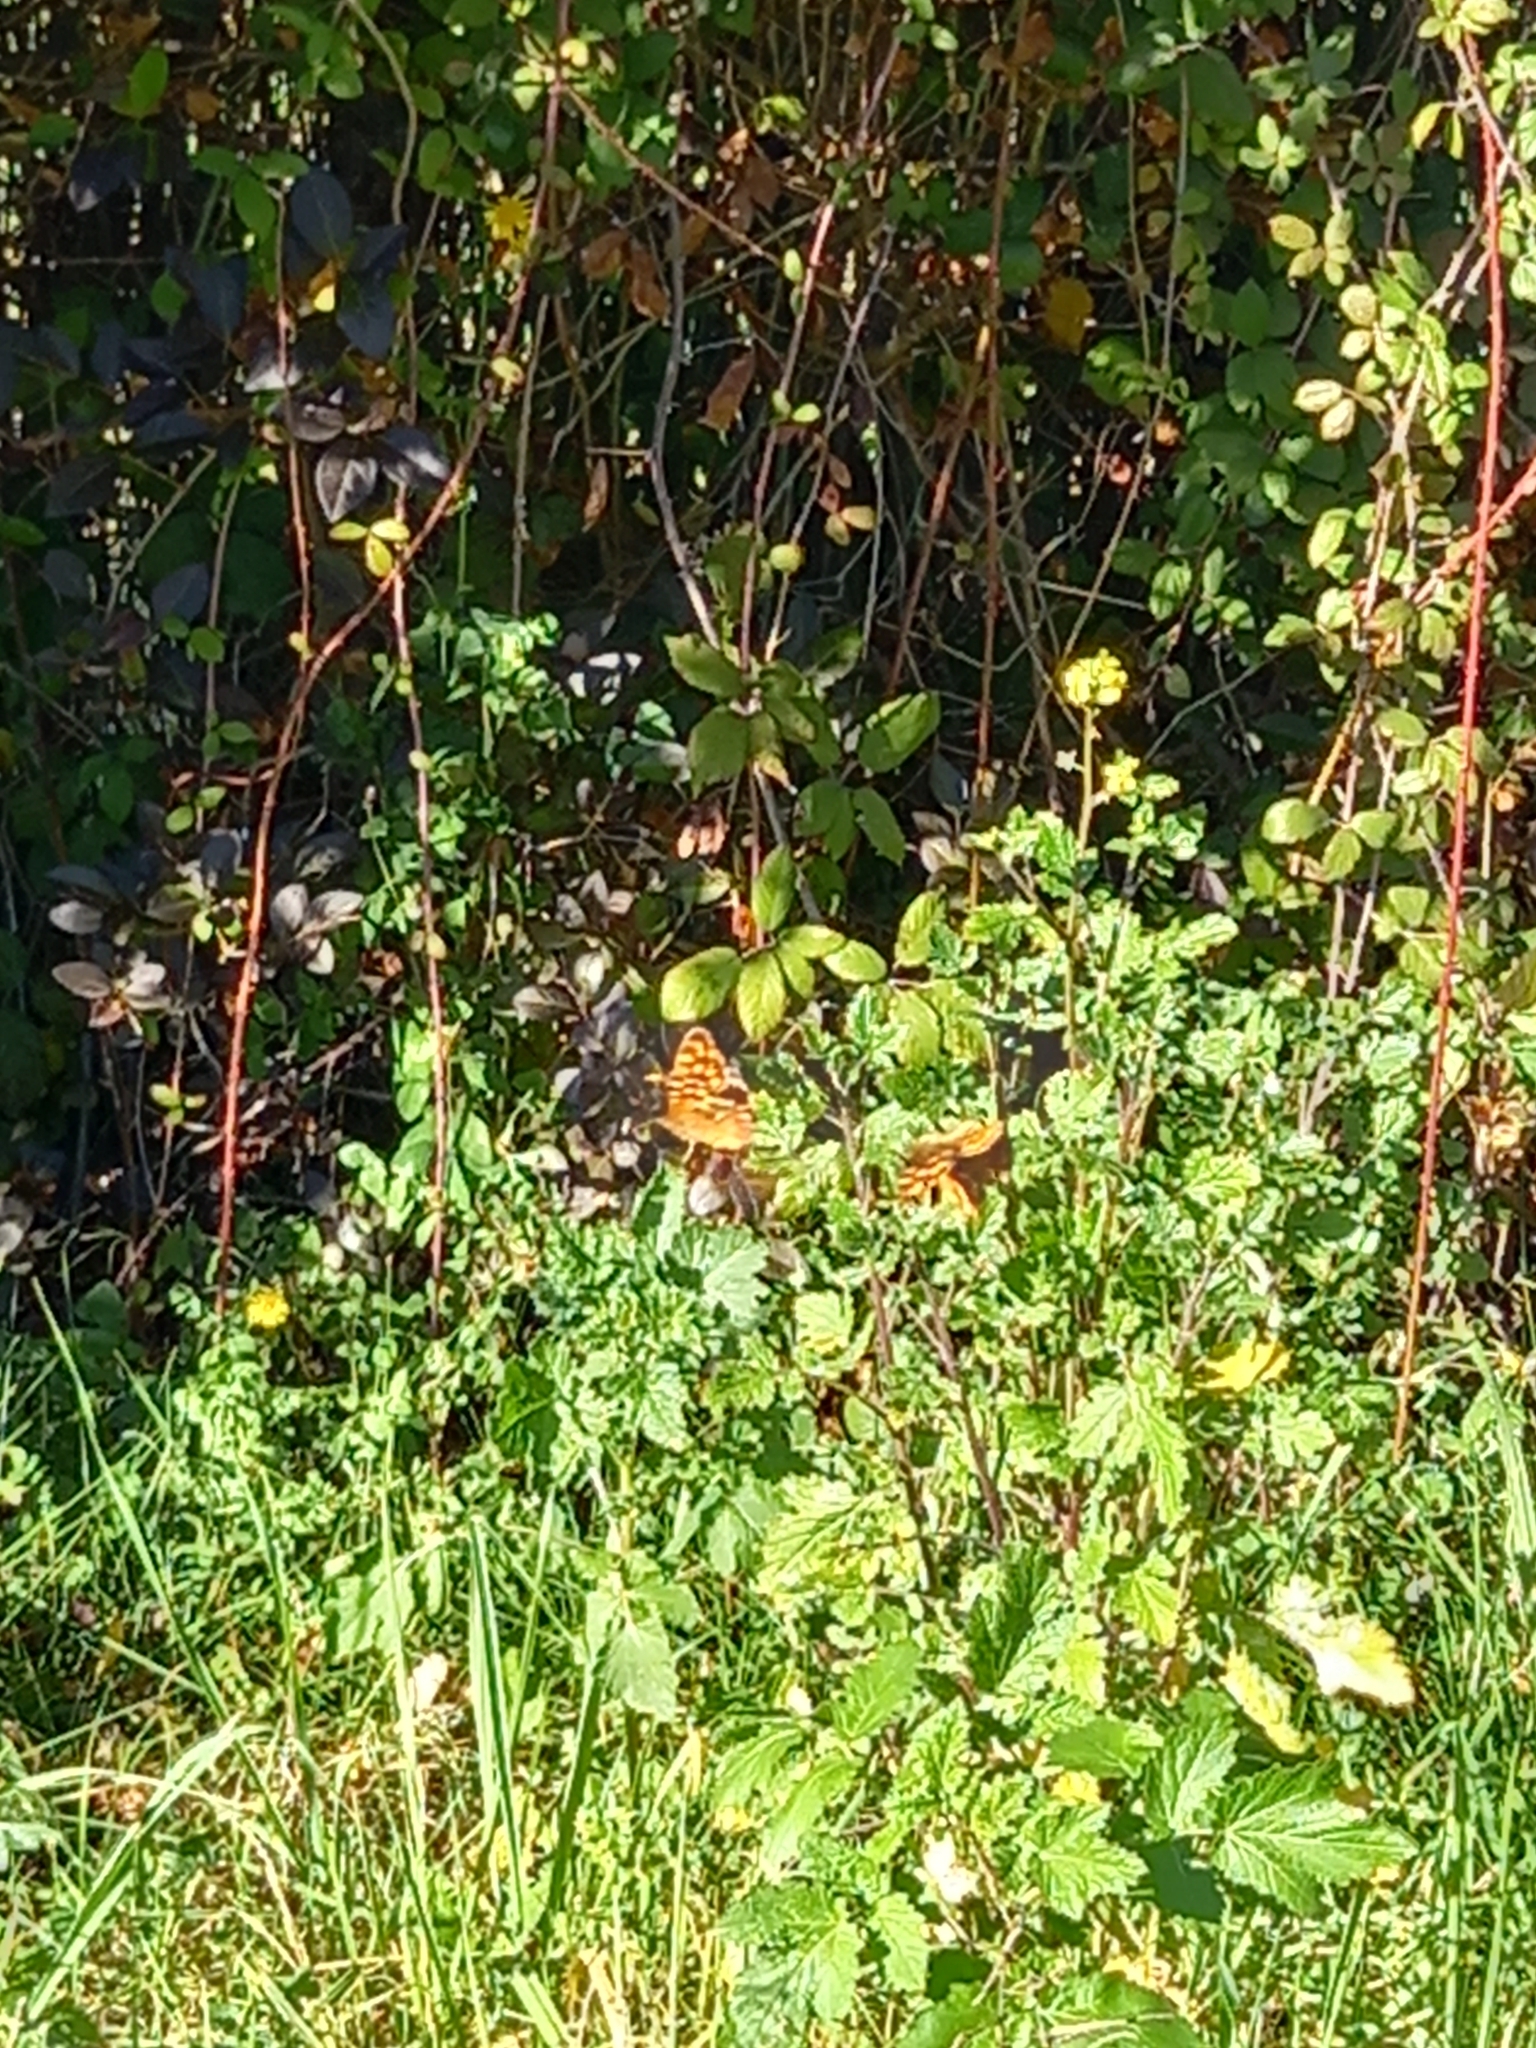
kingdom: Animalia
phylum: Arthropoda
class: Insecta
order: Lepidoptera
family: Nymphalidae
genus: Pararge
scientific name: Pararge aegeria
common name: Speckled wood
